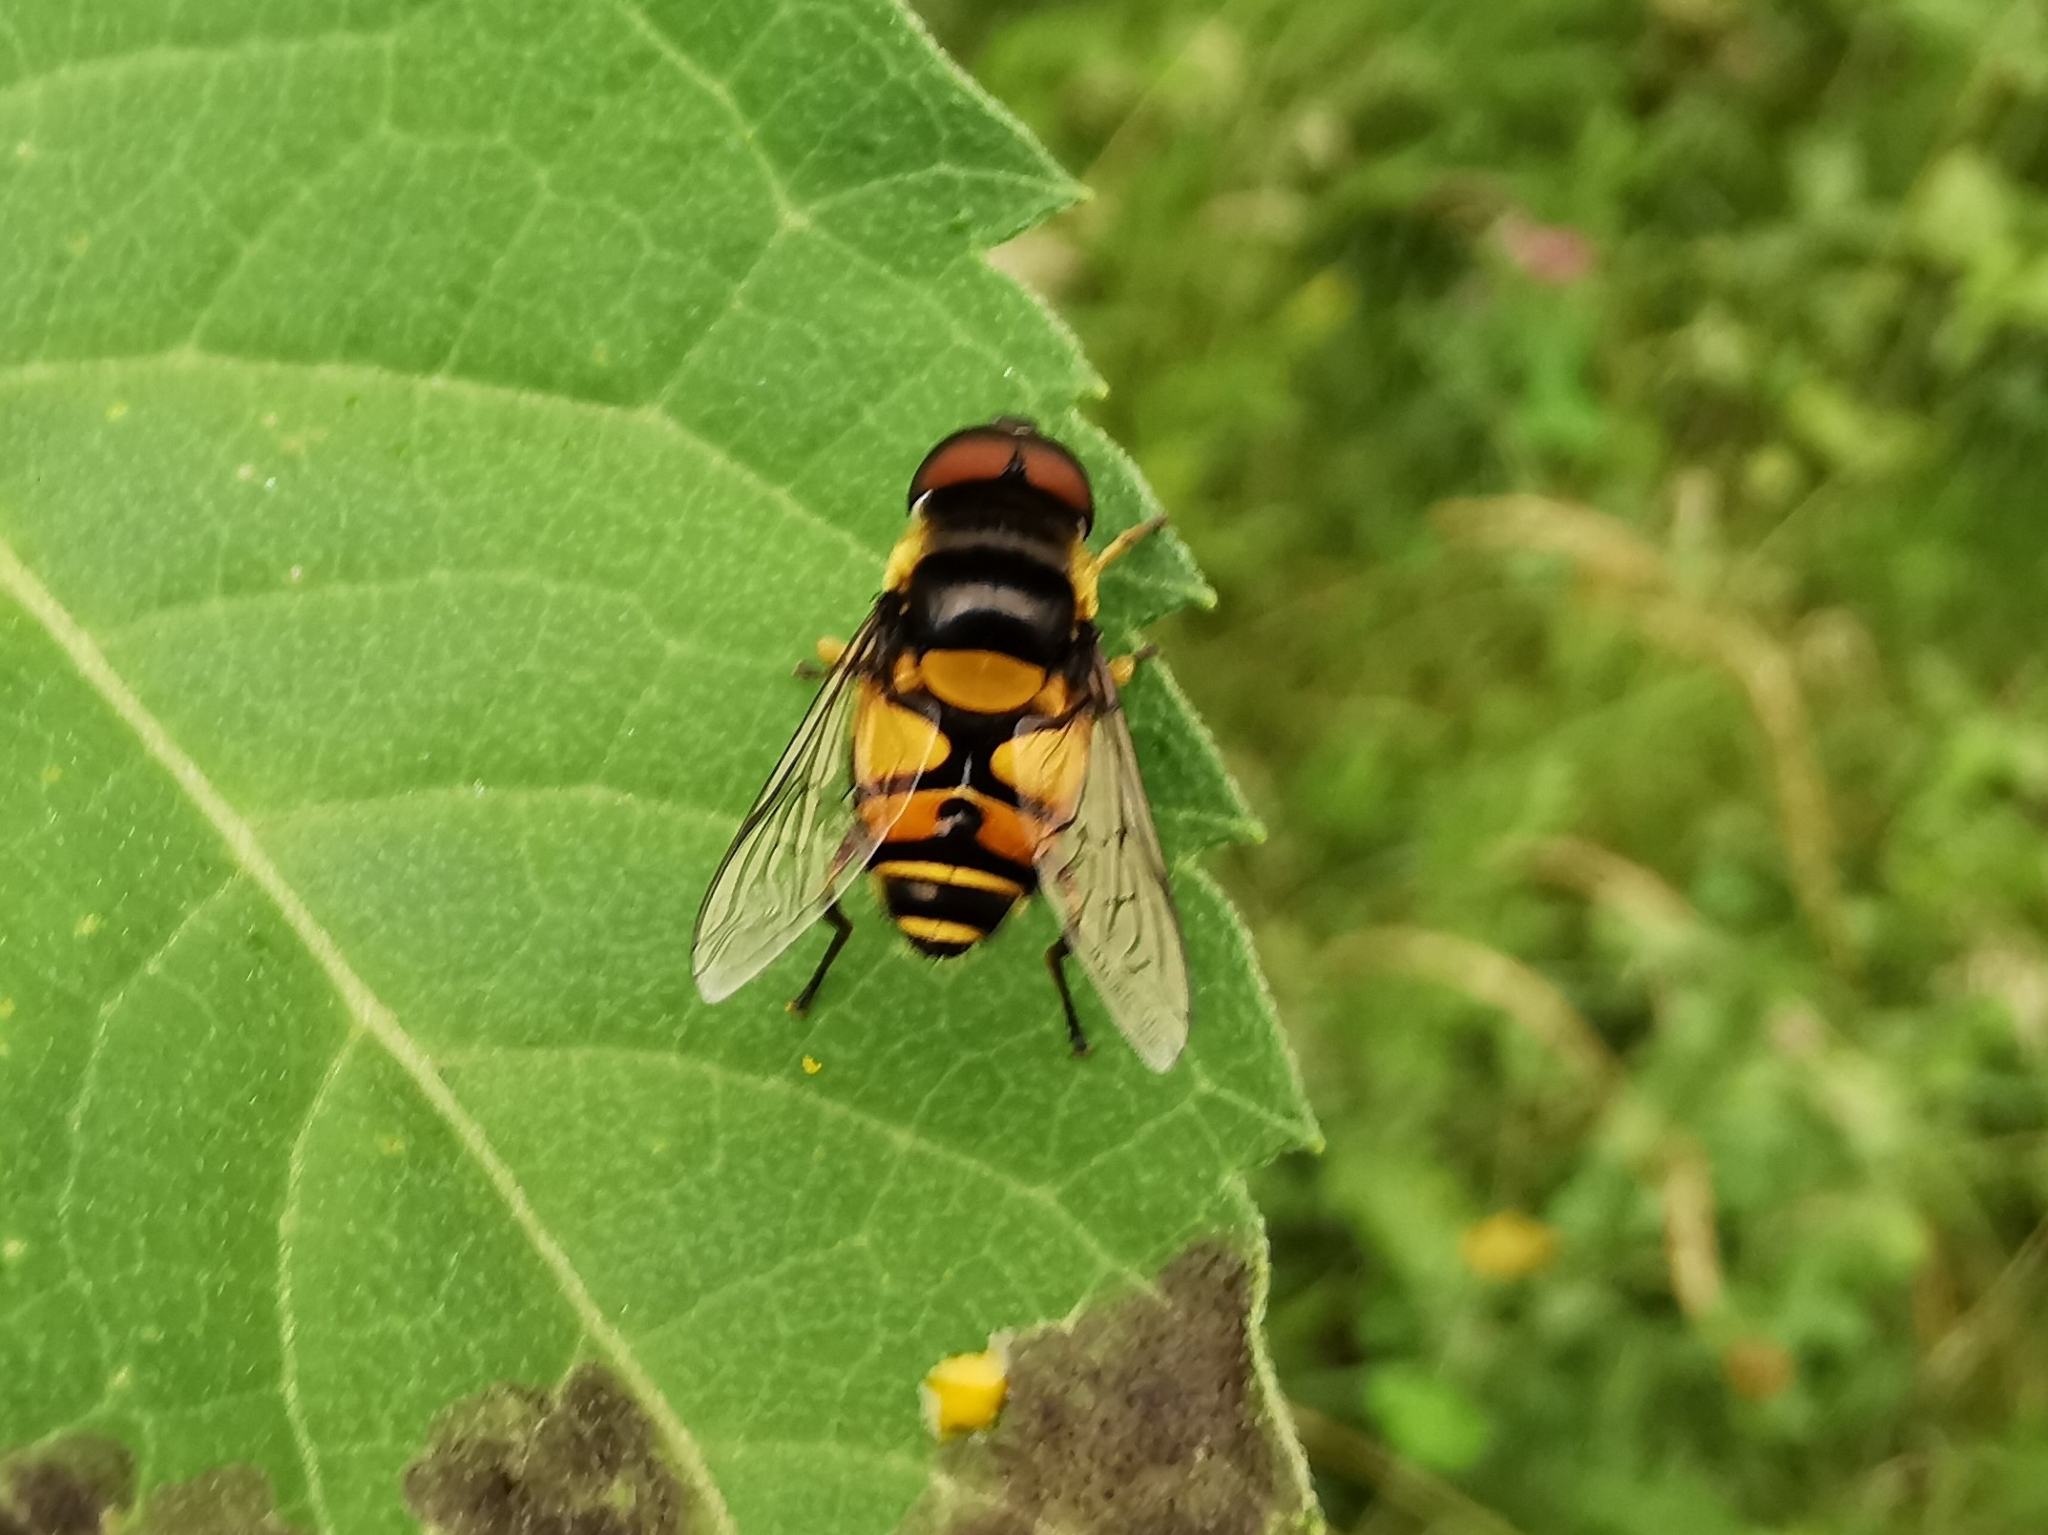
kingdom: Animalia
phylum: Arthropoda
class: Insecta
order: Diptera
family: Syrphidae
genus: Eristalis
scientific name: Eristalis transversa
